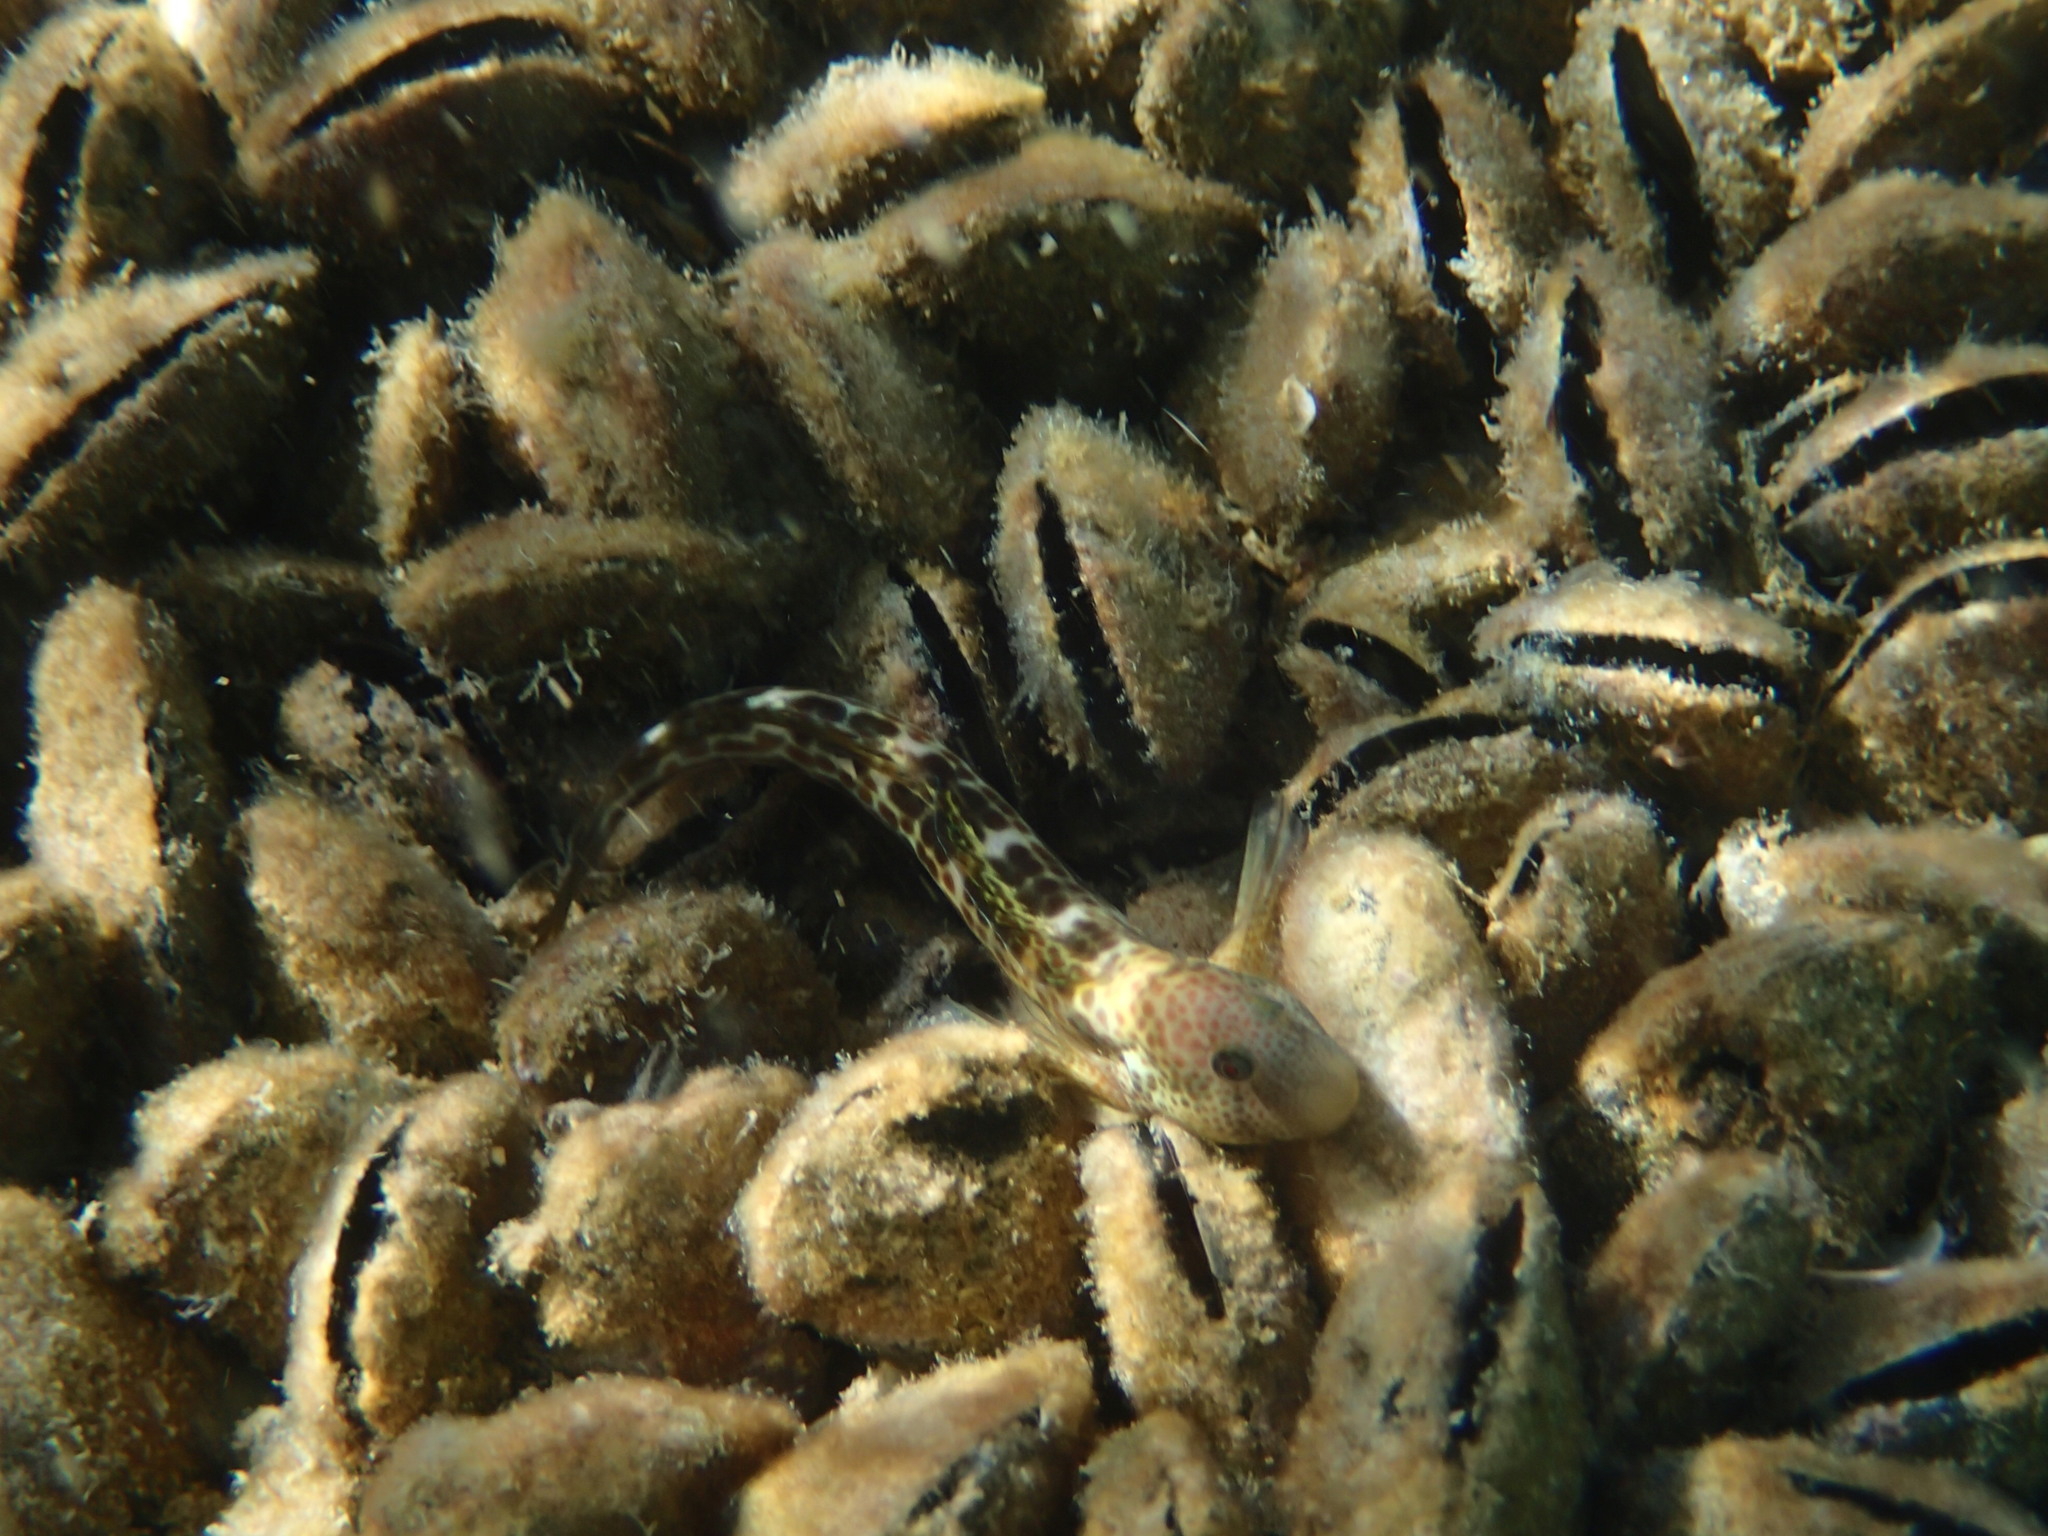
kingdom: Animalia
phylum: Chordata
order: Perciformes
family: Blenniidae
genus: Microlipophrys
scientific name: Microlipophrys canevae
